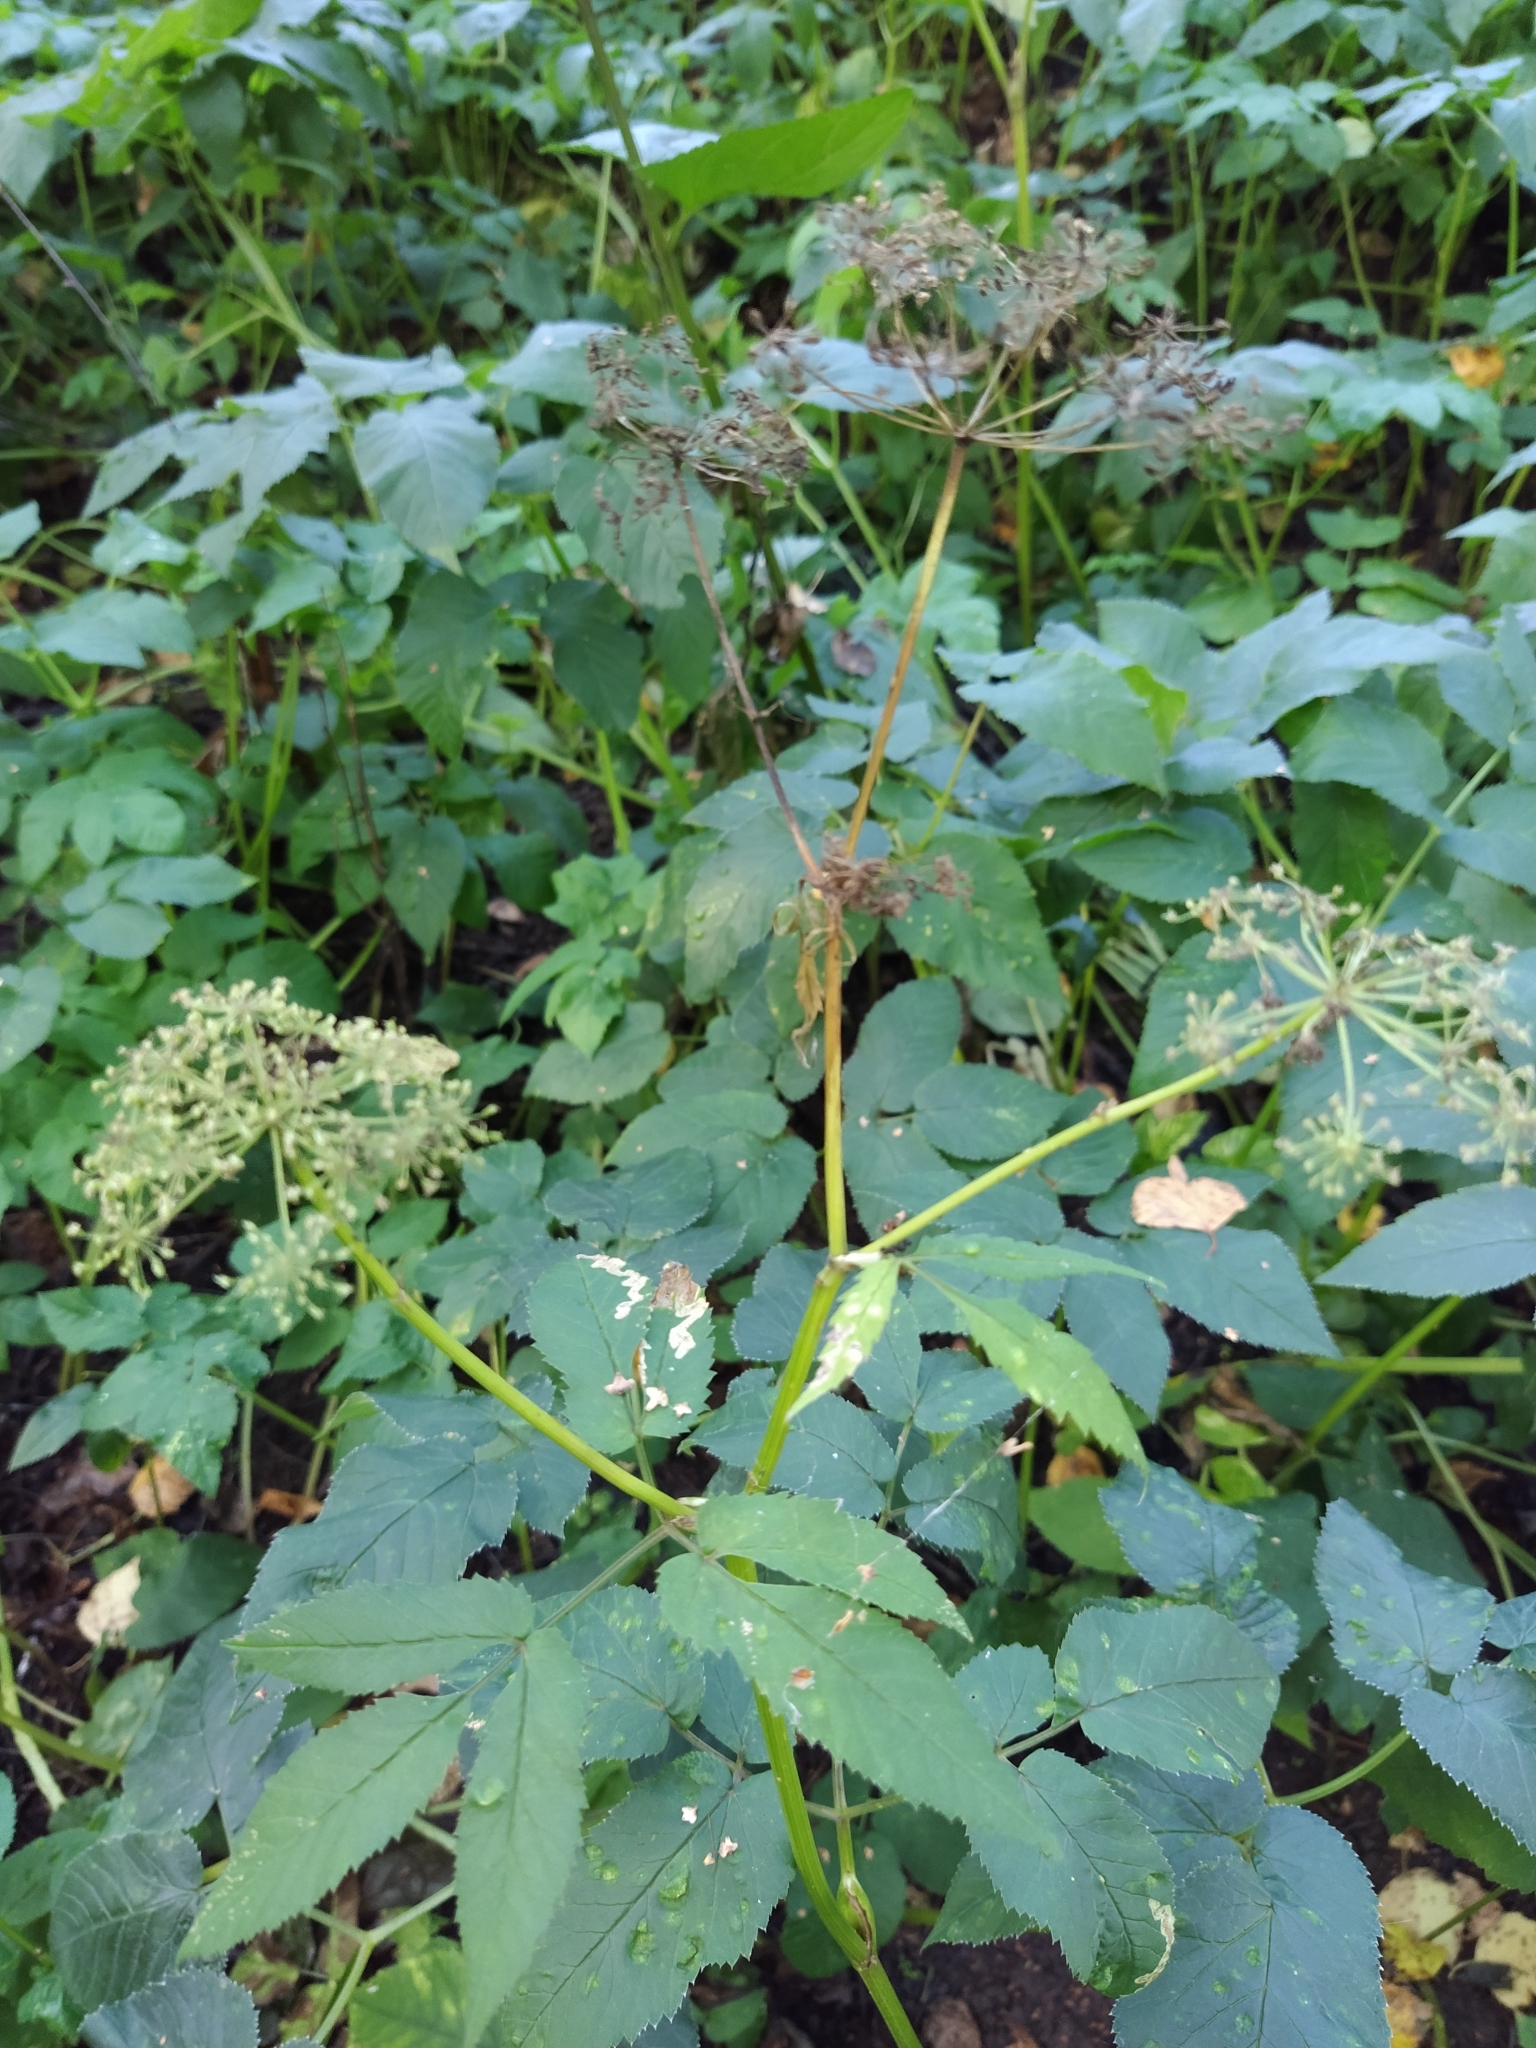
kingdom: Plantae
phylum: Tracheophyta
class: Magnoliopsida
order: Apiales
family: Apiaceae
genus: Aegopodium
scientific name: Aegopodium podagraria
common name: Ground-elder
